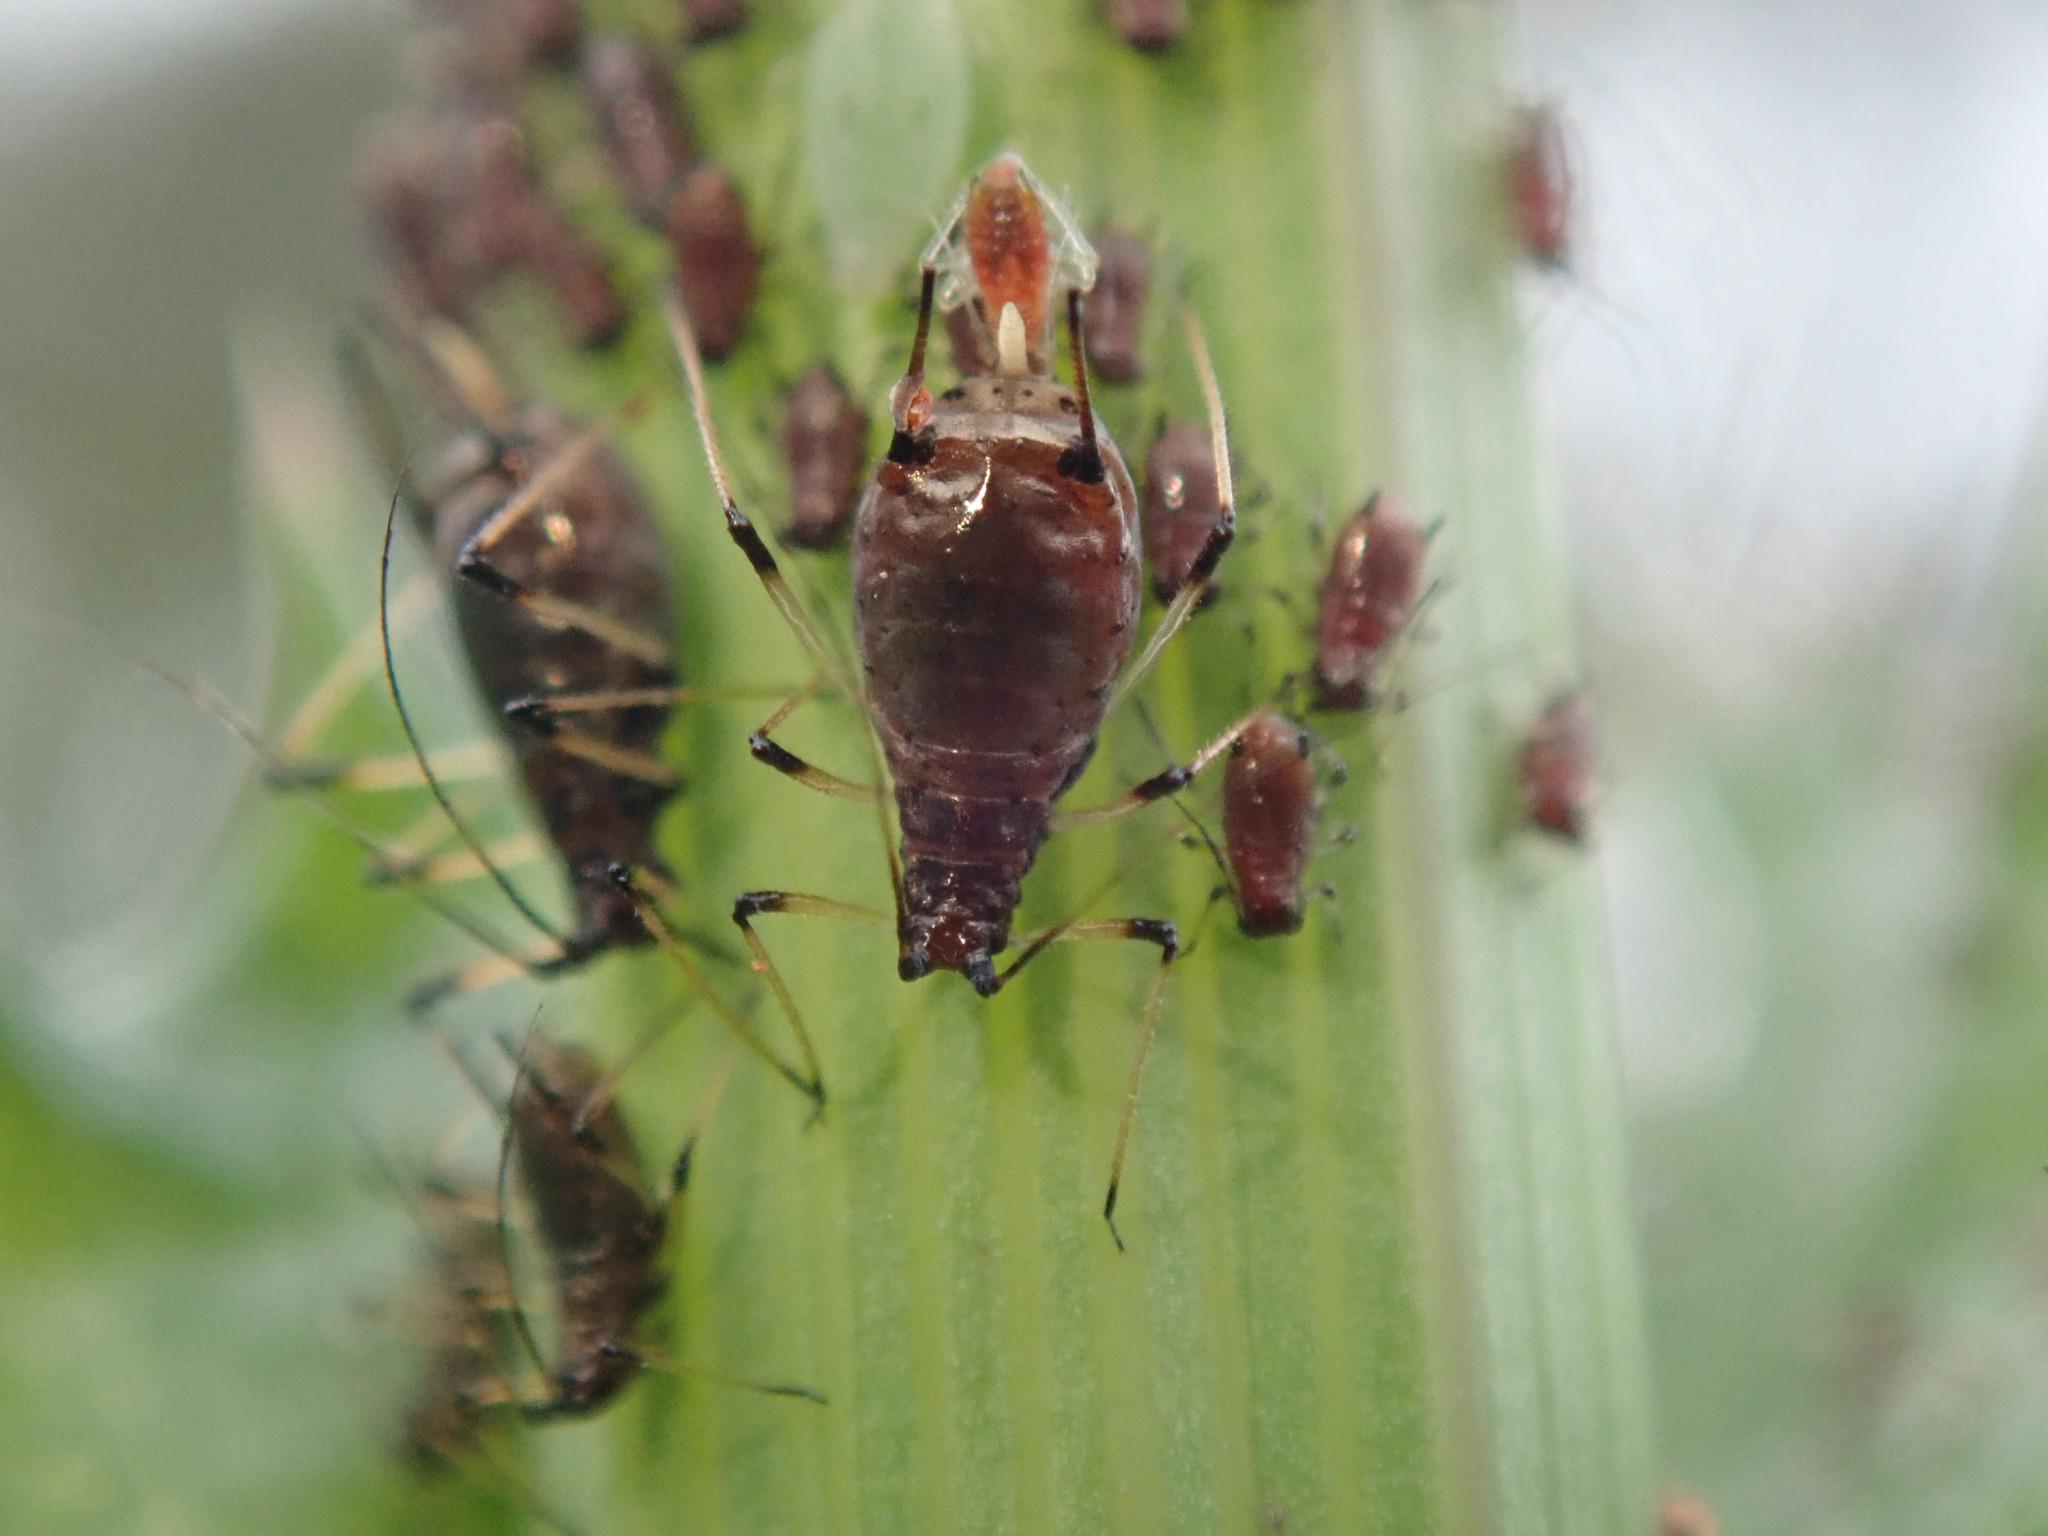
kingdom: Animalia
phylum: Arthropoda
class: Insecta
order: Hemiptera
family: Aphididae
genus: Uroleucon
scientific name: Uroleucon sonchi
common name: Large sowthistle aphid
